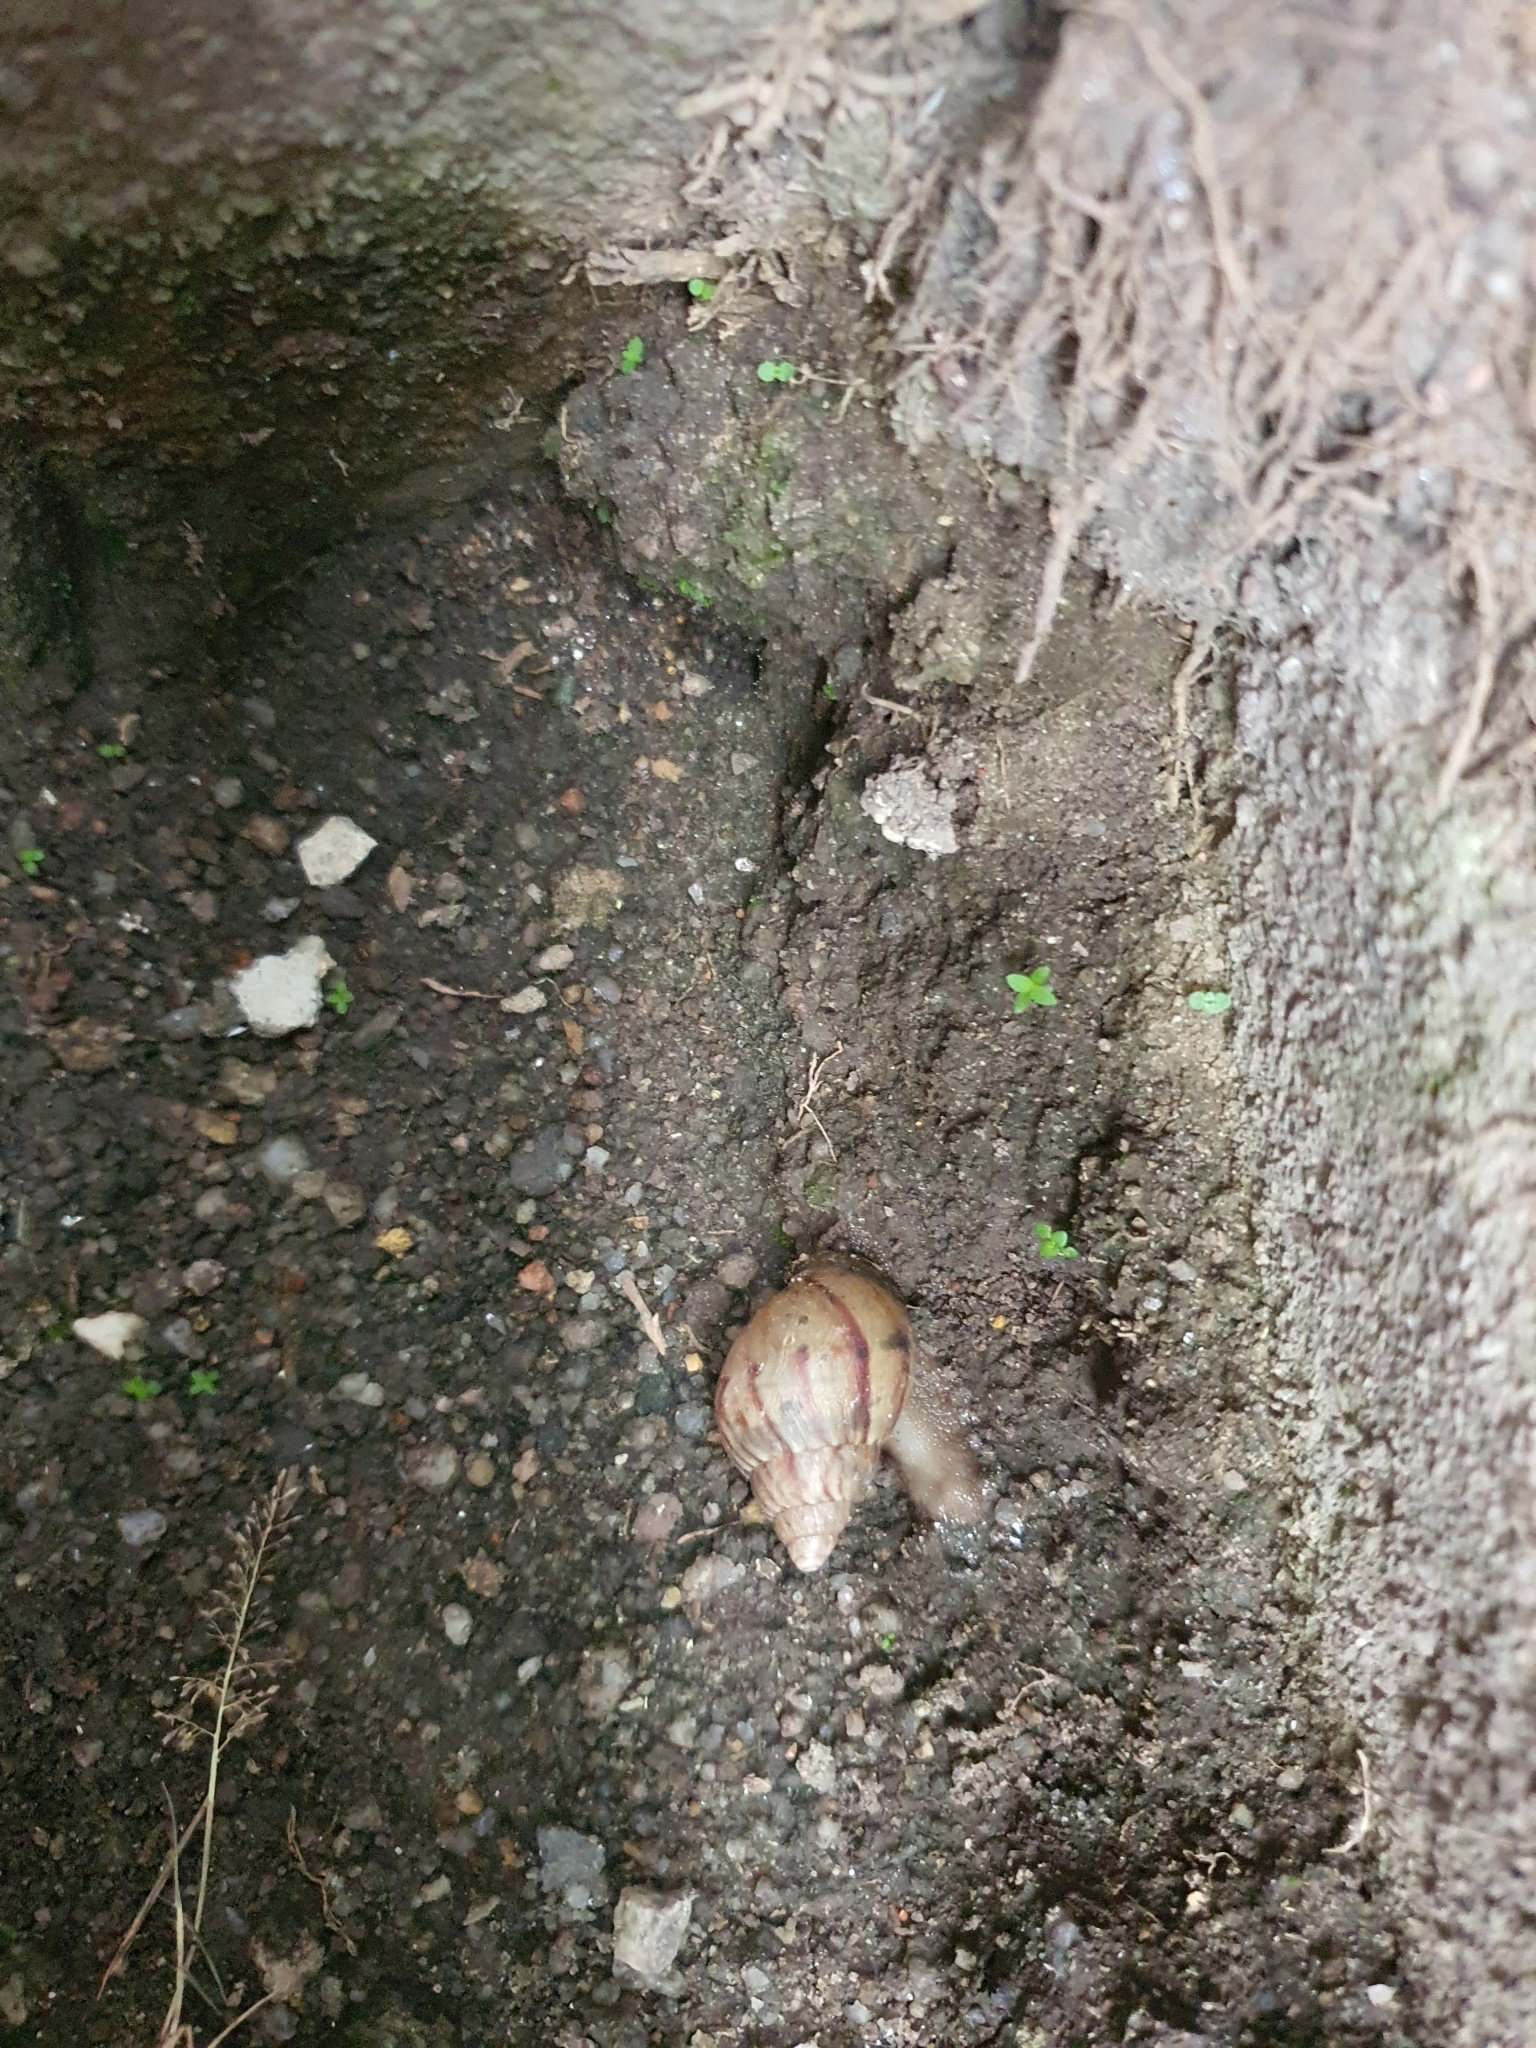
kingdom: Animalia
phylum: Mollusca
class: Gastropoda
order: Stylommatophora
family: Achatinidae
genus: Lissachatina
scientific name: Lissachatina fulica
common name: Giant african snail
